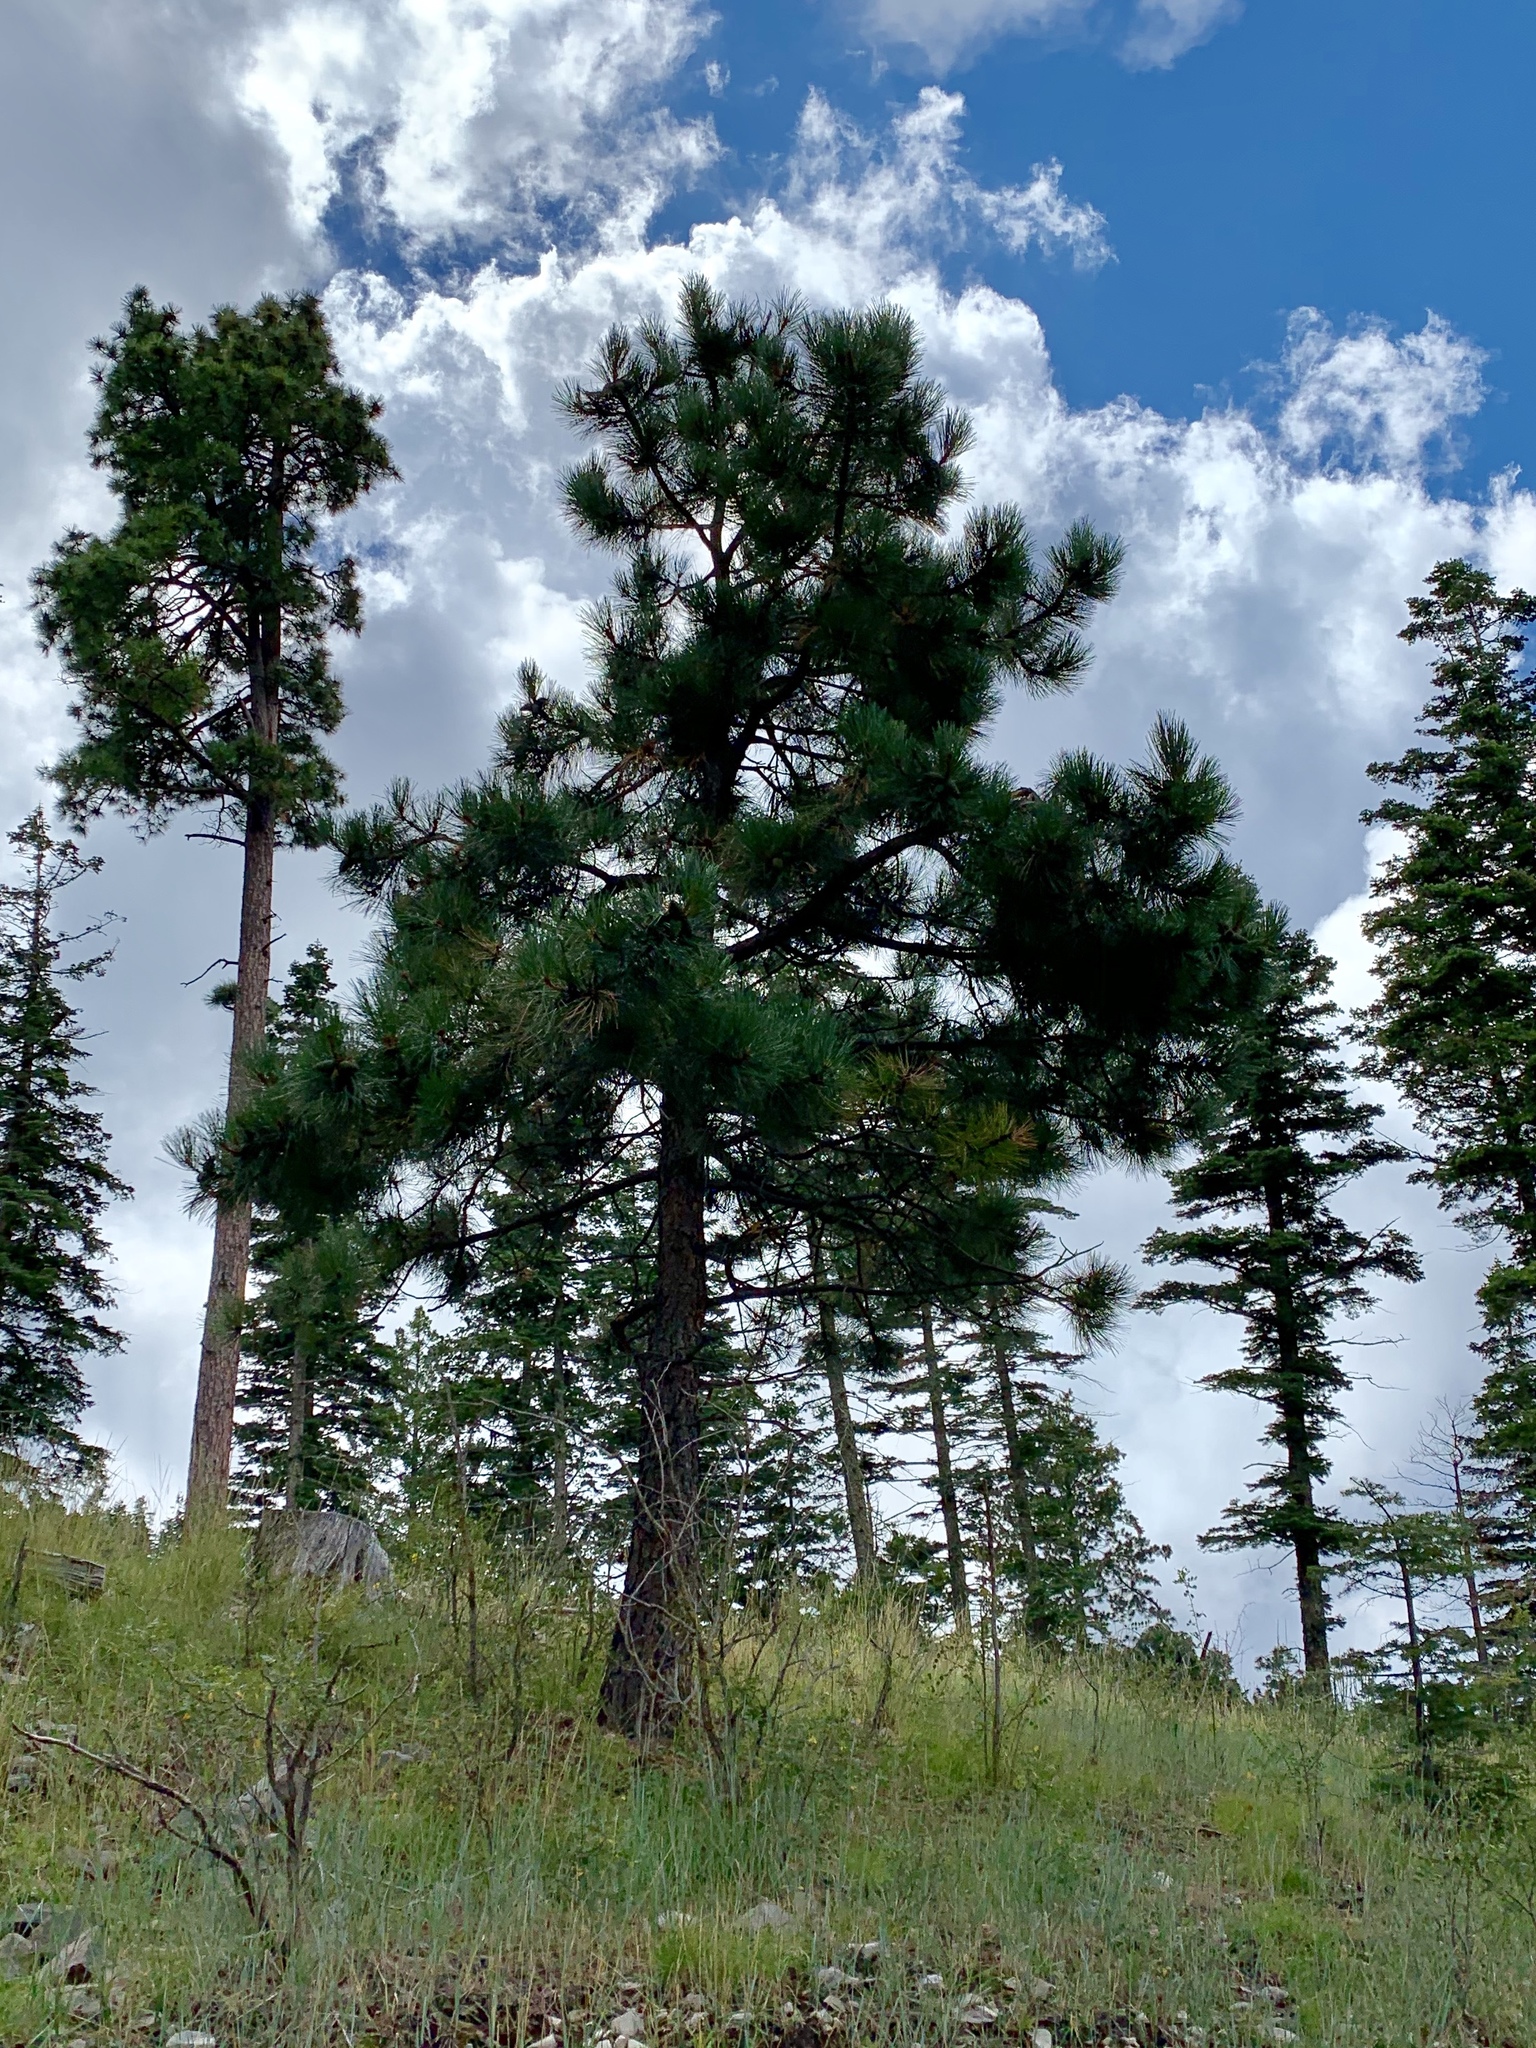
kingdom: Plantae
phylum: Tracheophyta
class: Pinopsida
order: Pinales
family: Pinaceae
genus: Pinus
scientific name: Pinus ponderosa
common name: Western yellow-pine
